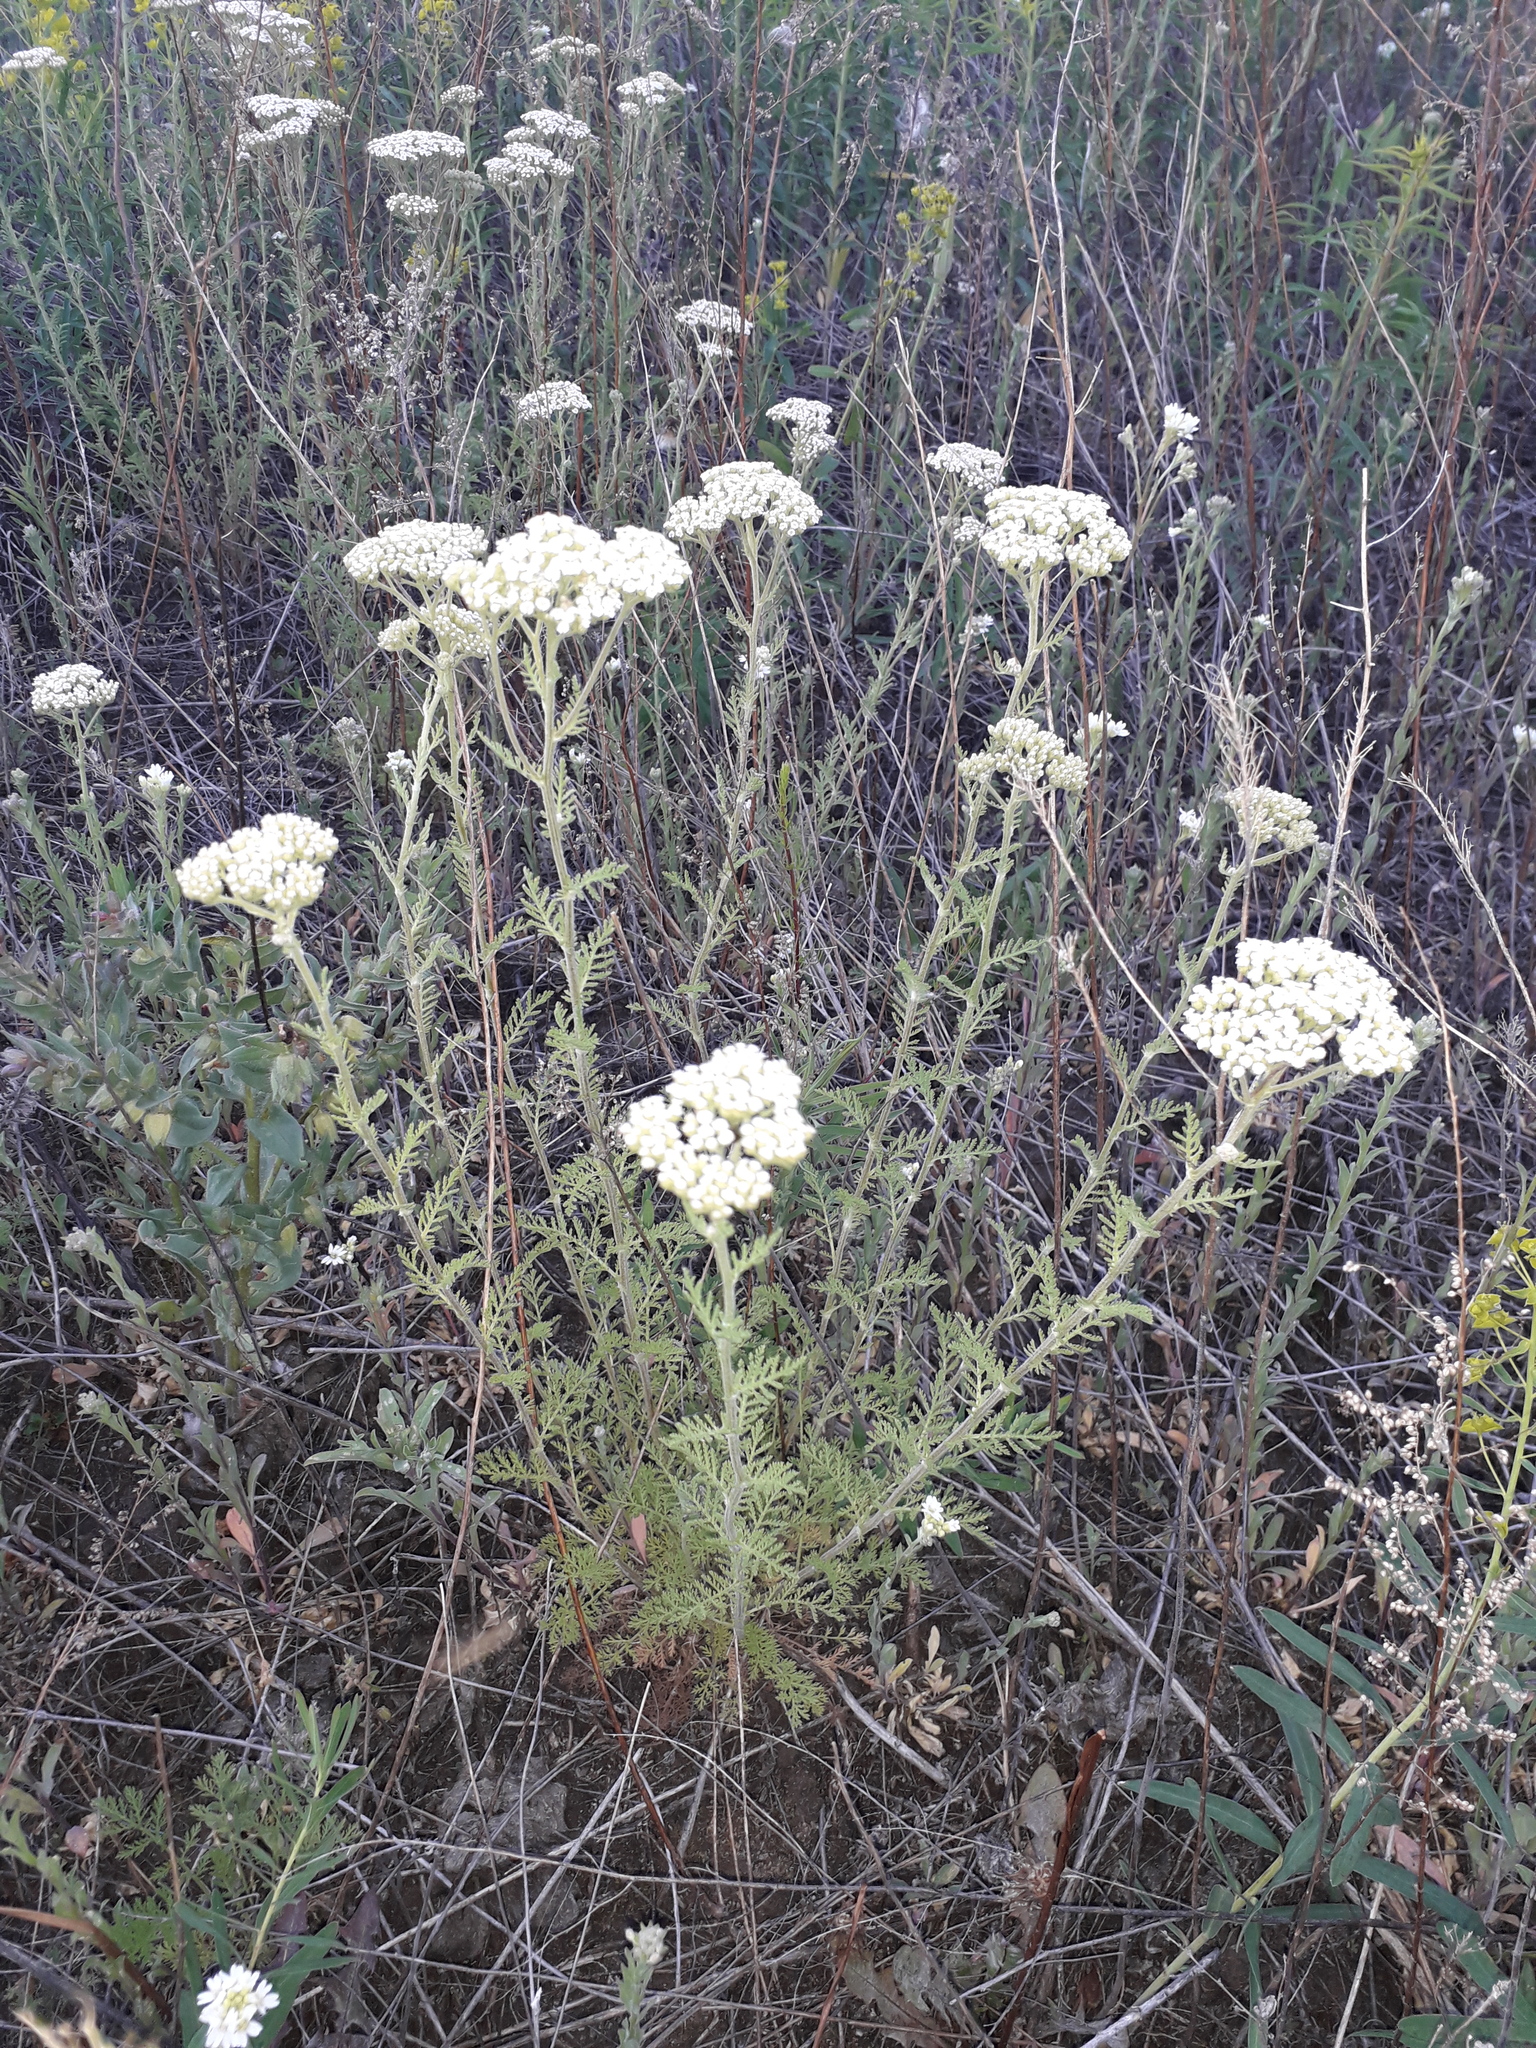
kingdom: Plantae
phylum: Tracheophyta
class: Magnoliopsida
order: Asterales
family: Asteraceae
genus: Achillea
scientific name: Achillea nobilis
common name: Noble yarrow
